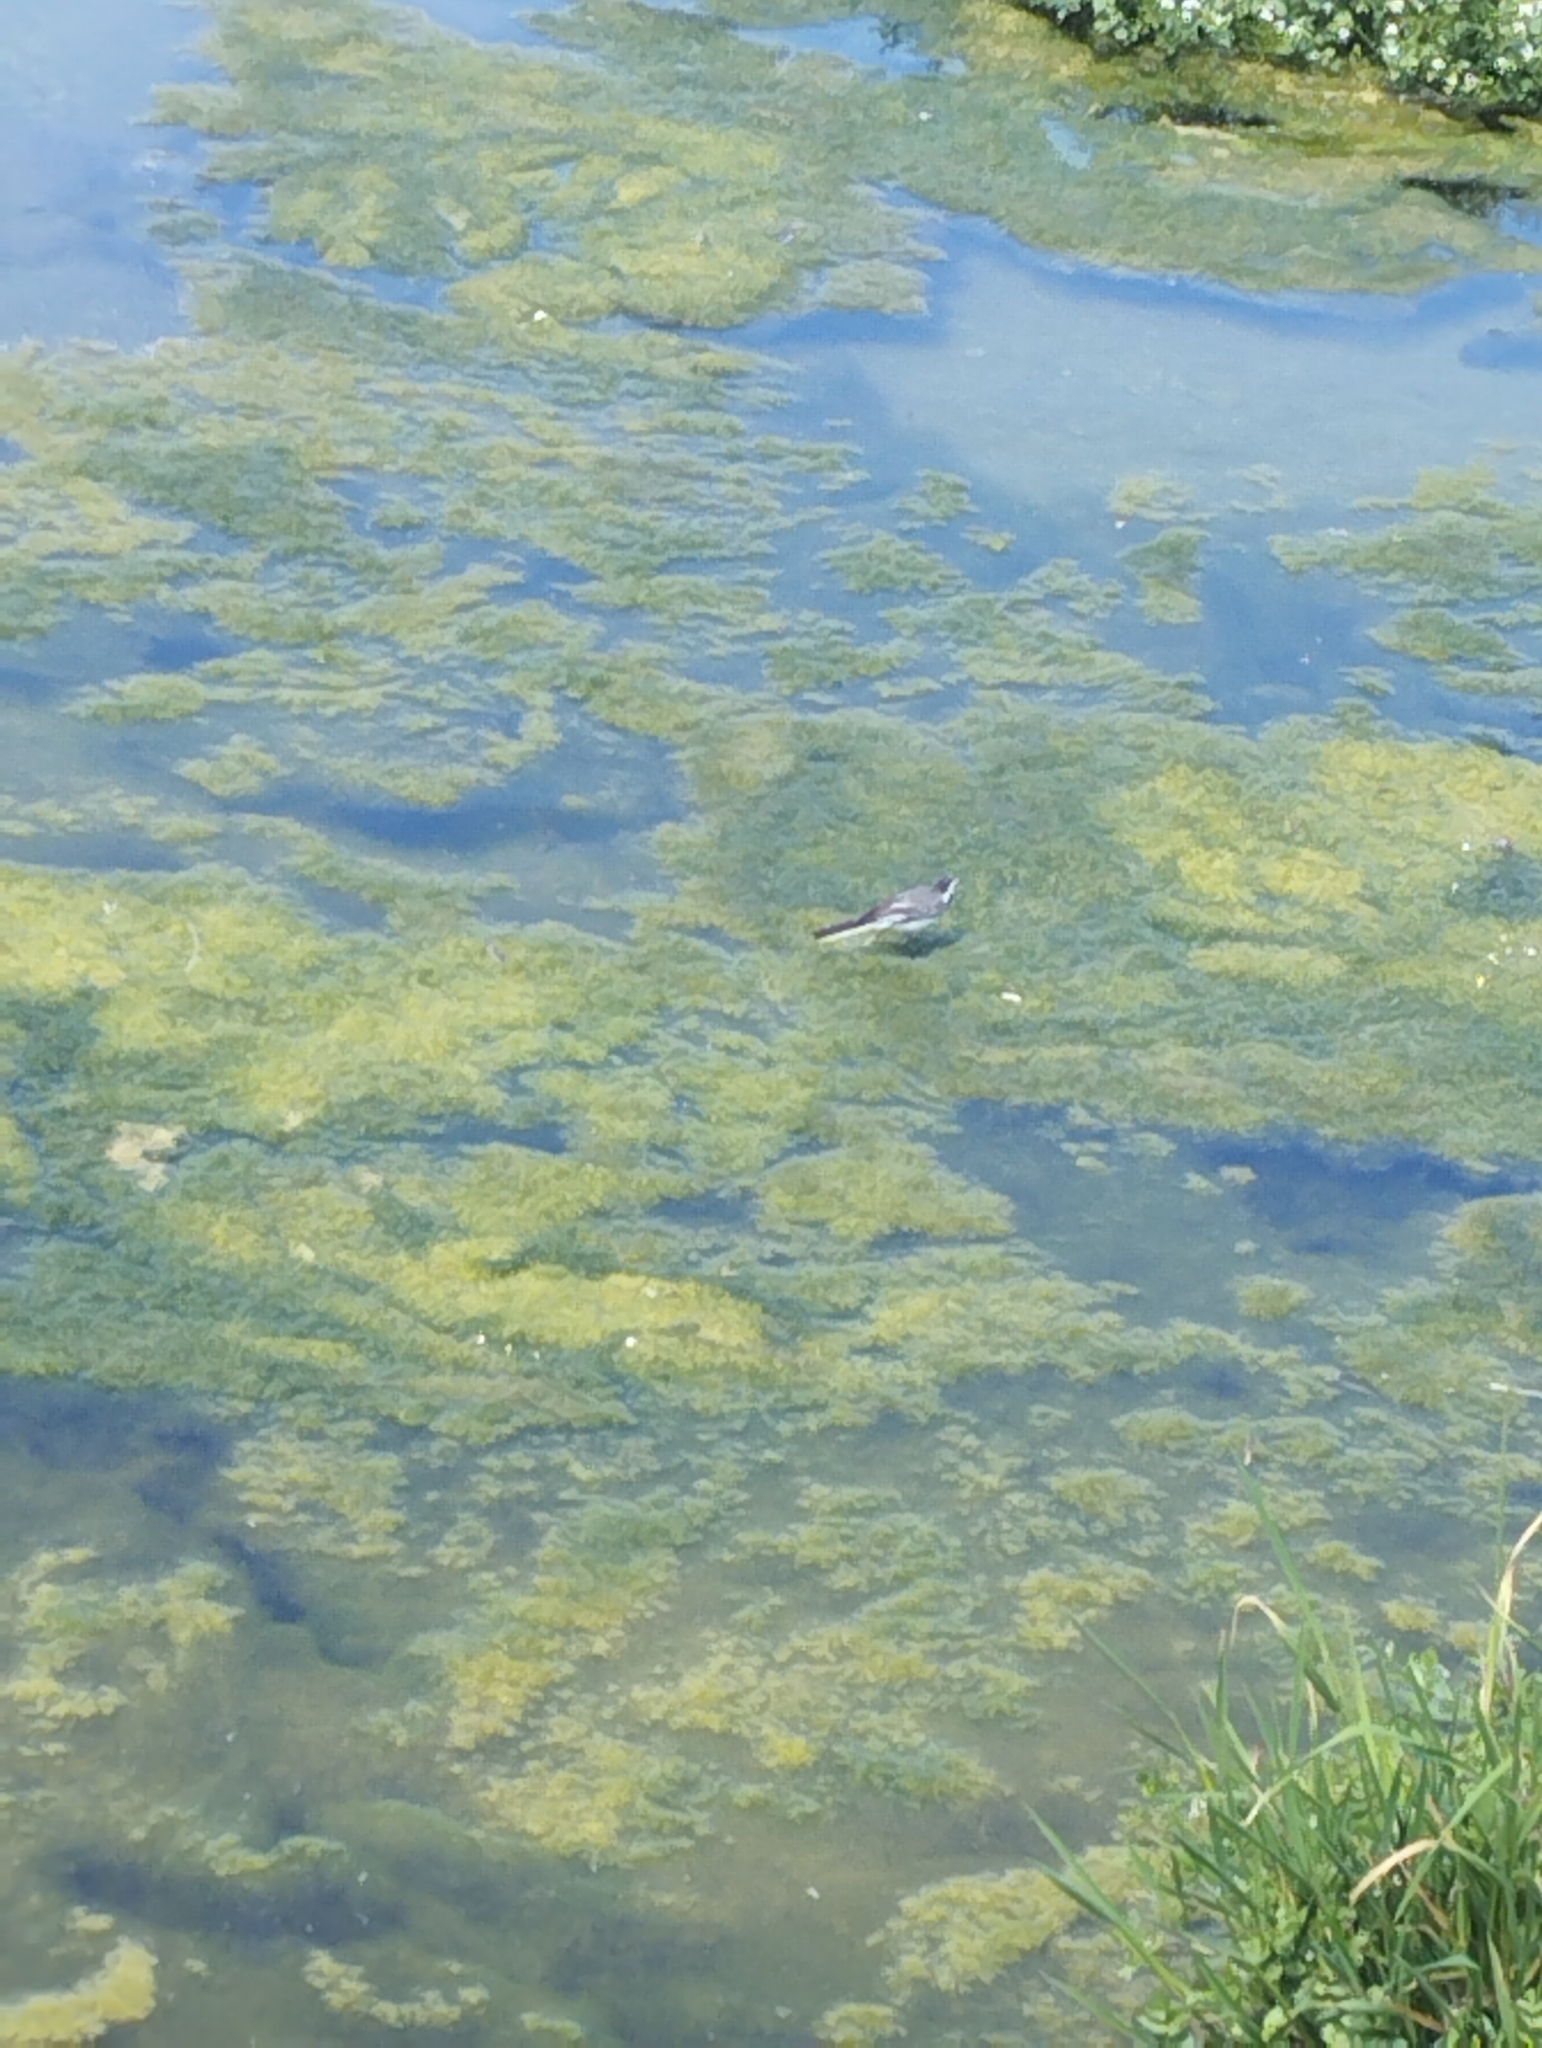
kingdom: Animalia
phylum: Chordata
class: Aves
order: Passeriformes
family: Motacillidae
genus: Motacilla
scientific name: Motacilla alba
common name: White wagtail
